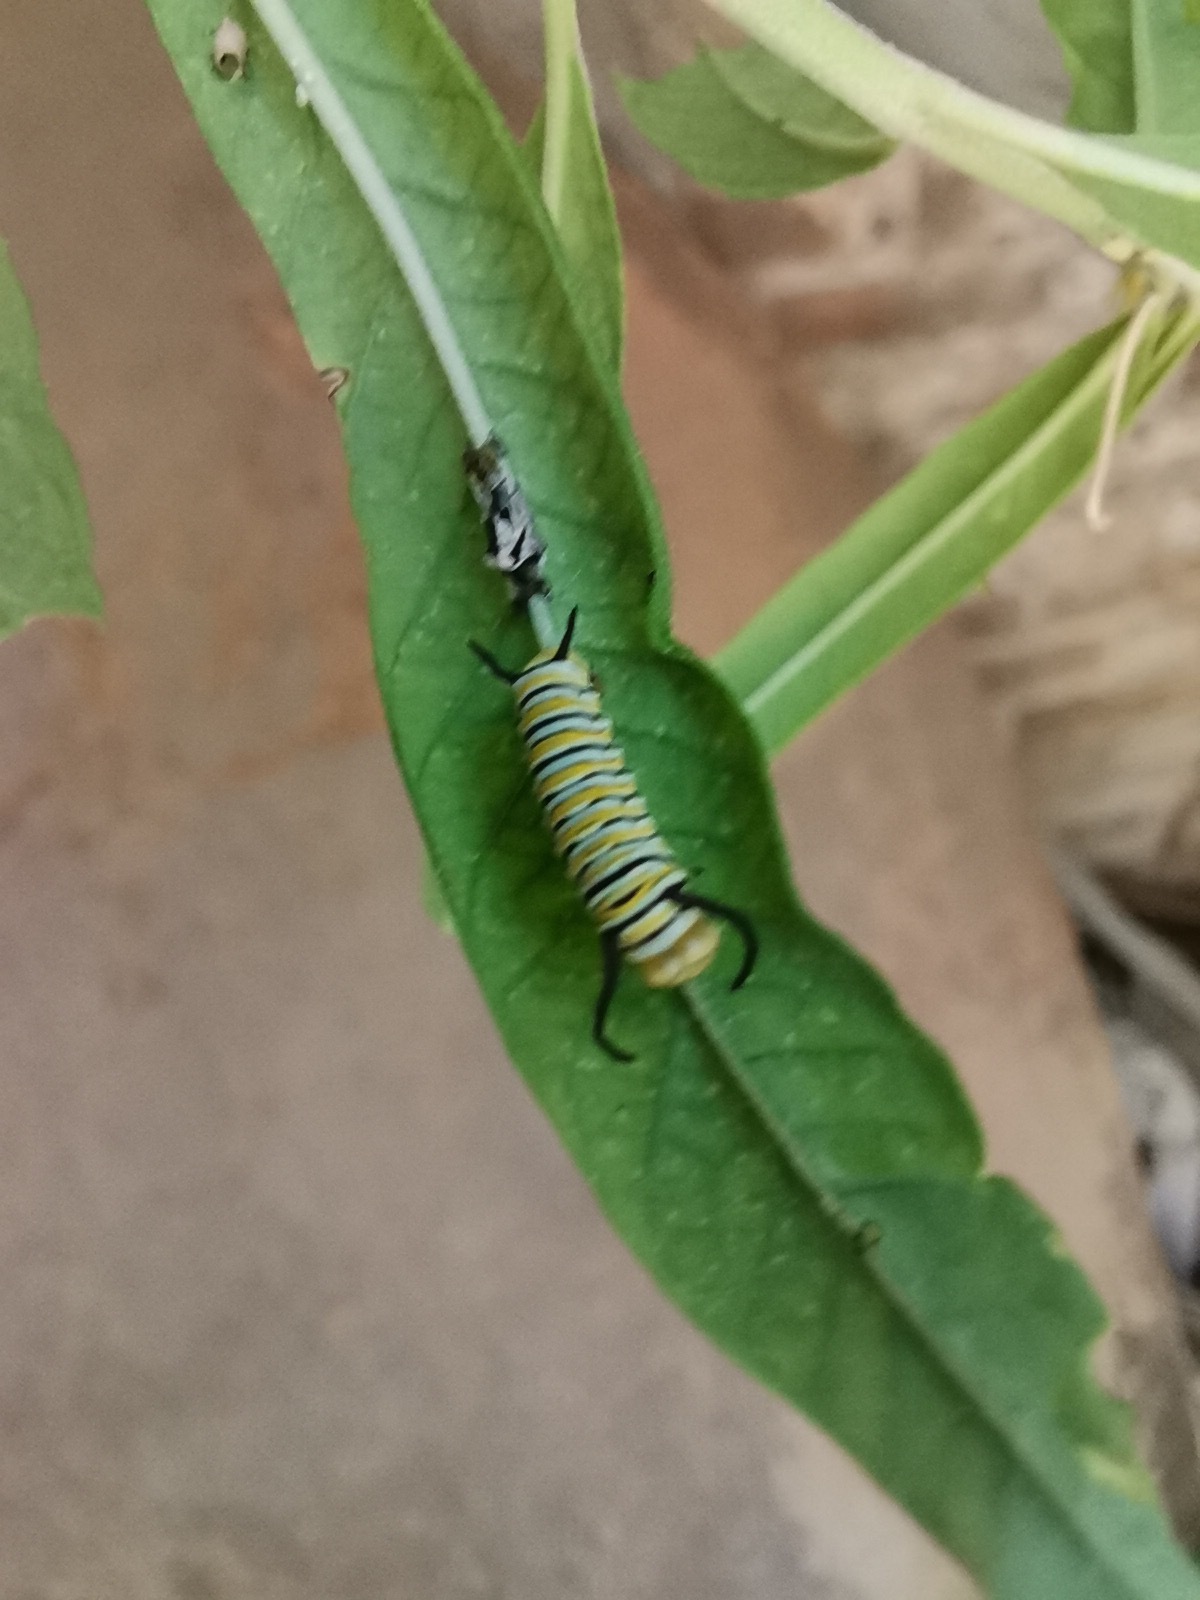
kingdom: Animalia
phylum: Arthropoda
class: Insecta
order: Lepidoptera
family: Nymphalidae
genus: Danaus
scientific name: Danaus plexippus
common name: Monarch
